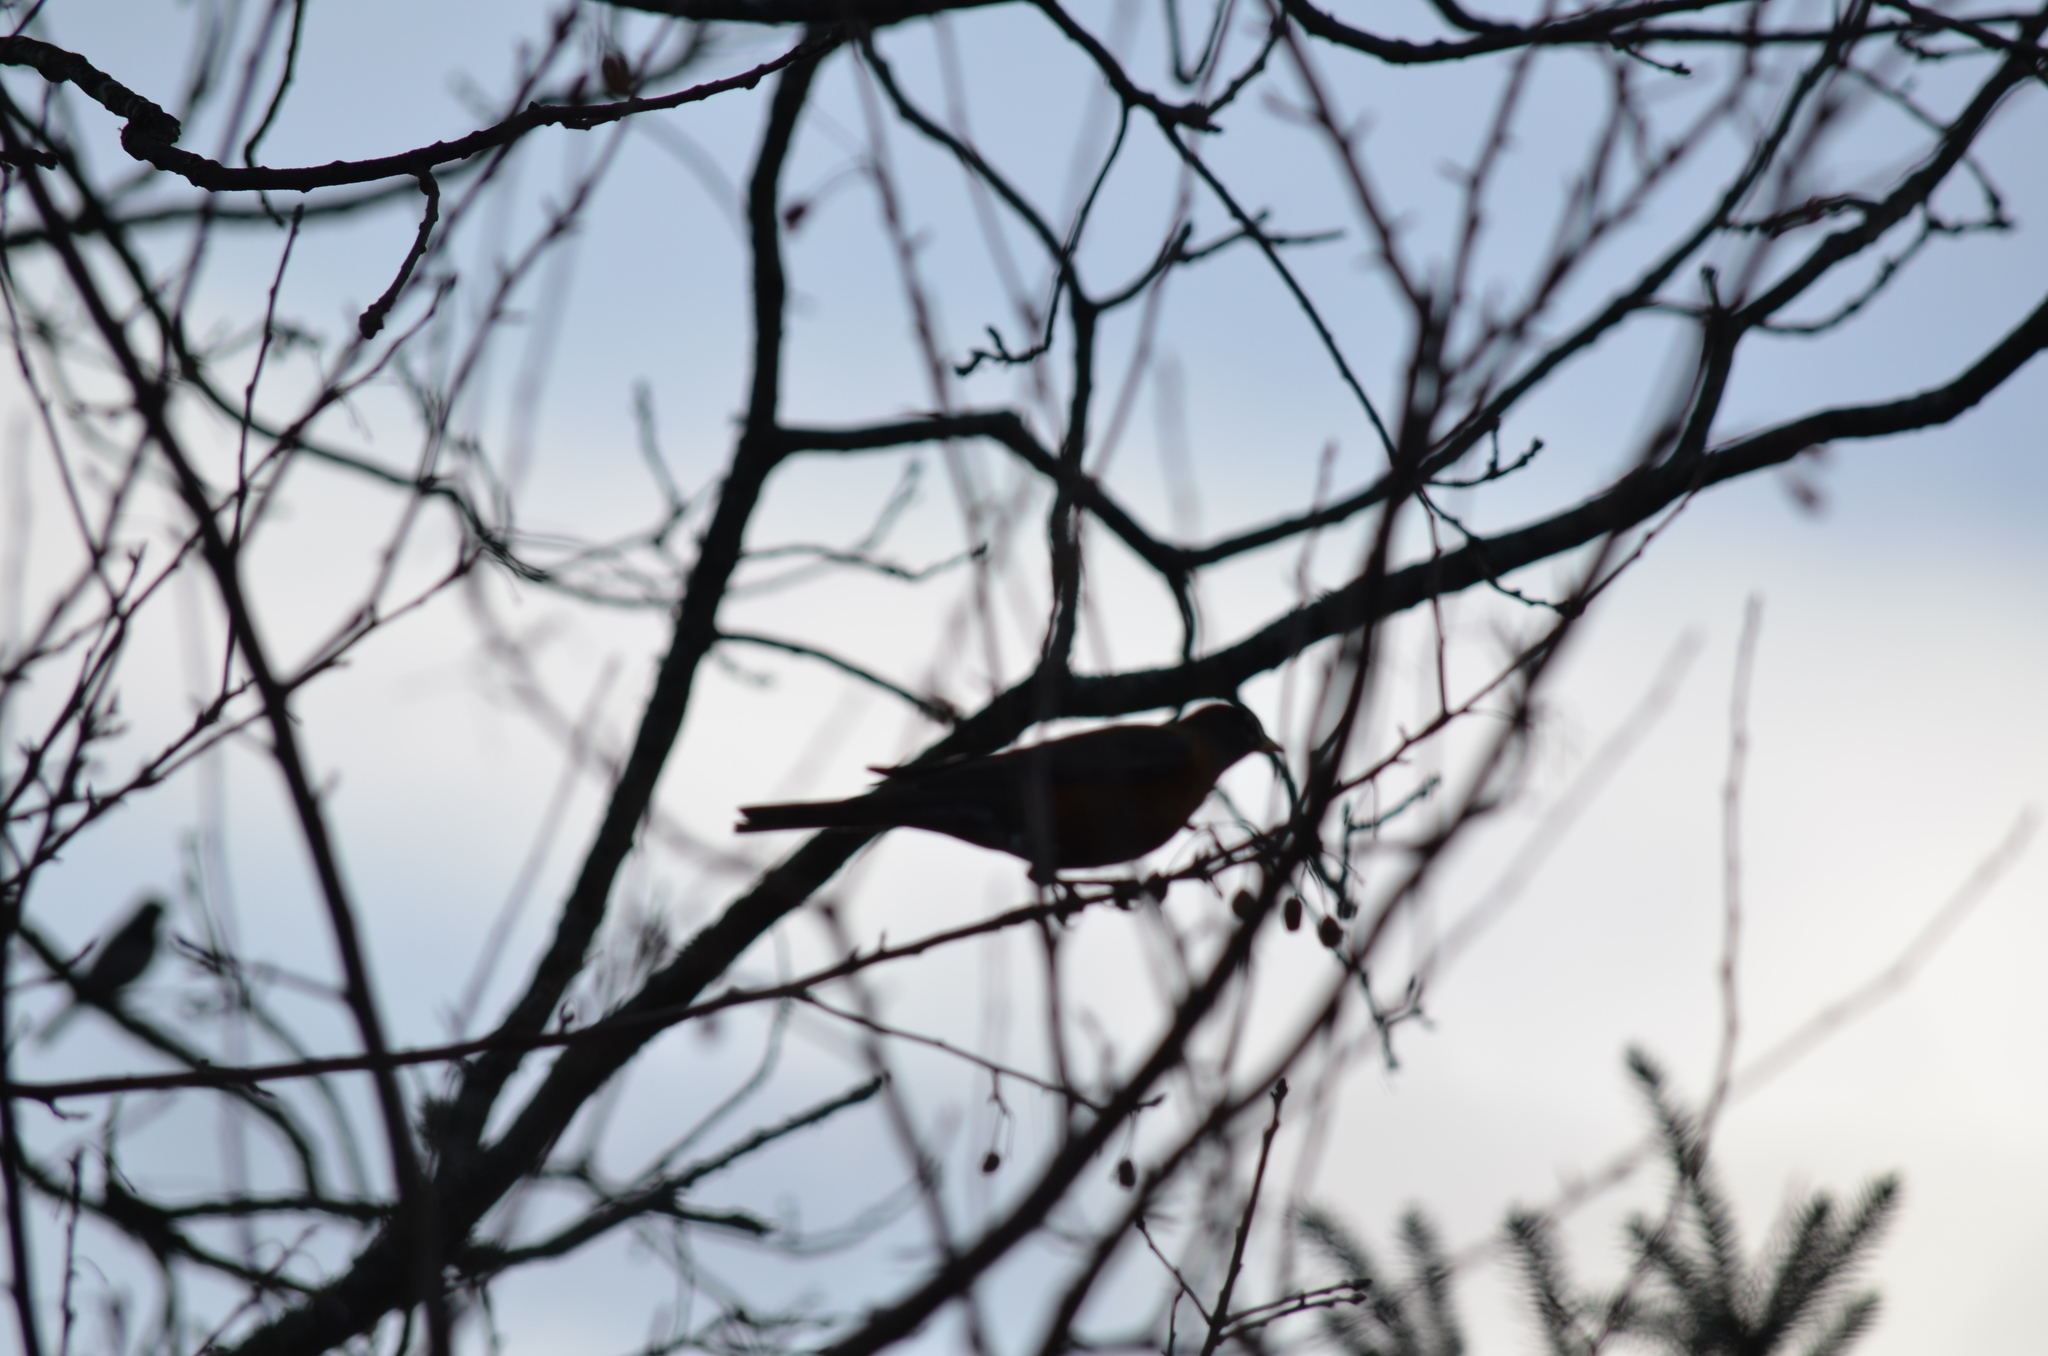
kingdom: Animalia
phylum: Chordata
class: Aves
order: Passeriformes
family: Turdidae
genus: Turdus
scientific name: Turdus migratorius
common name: American robin
